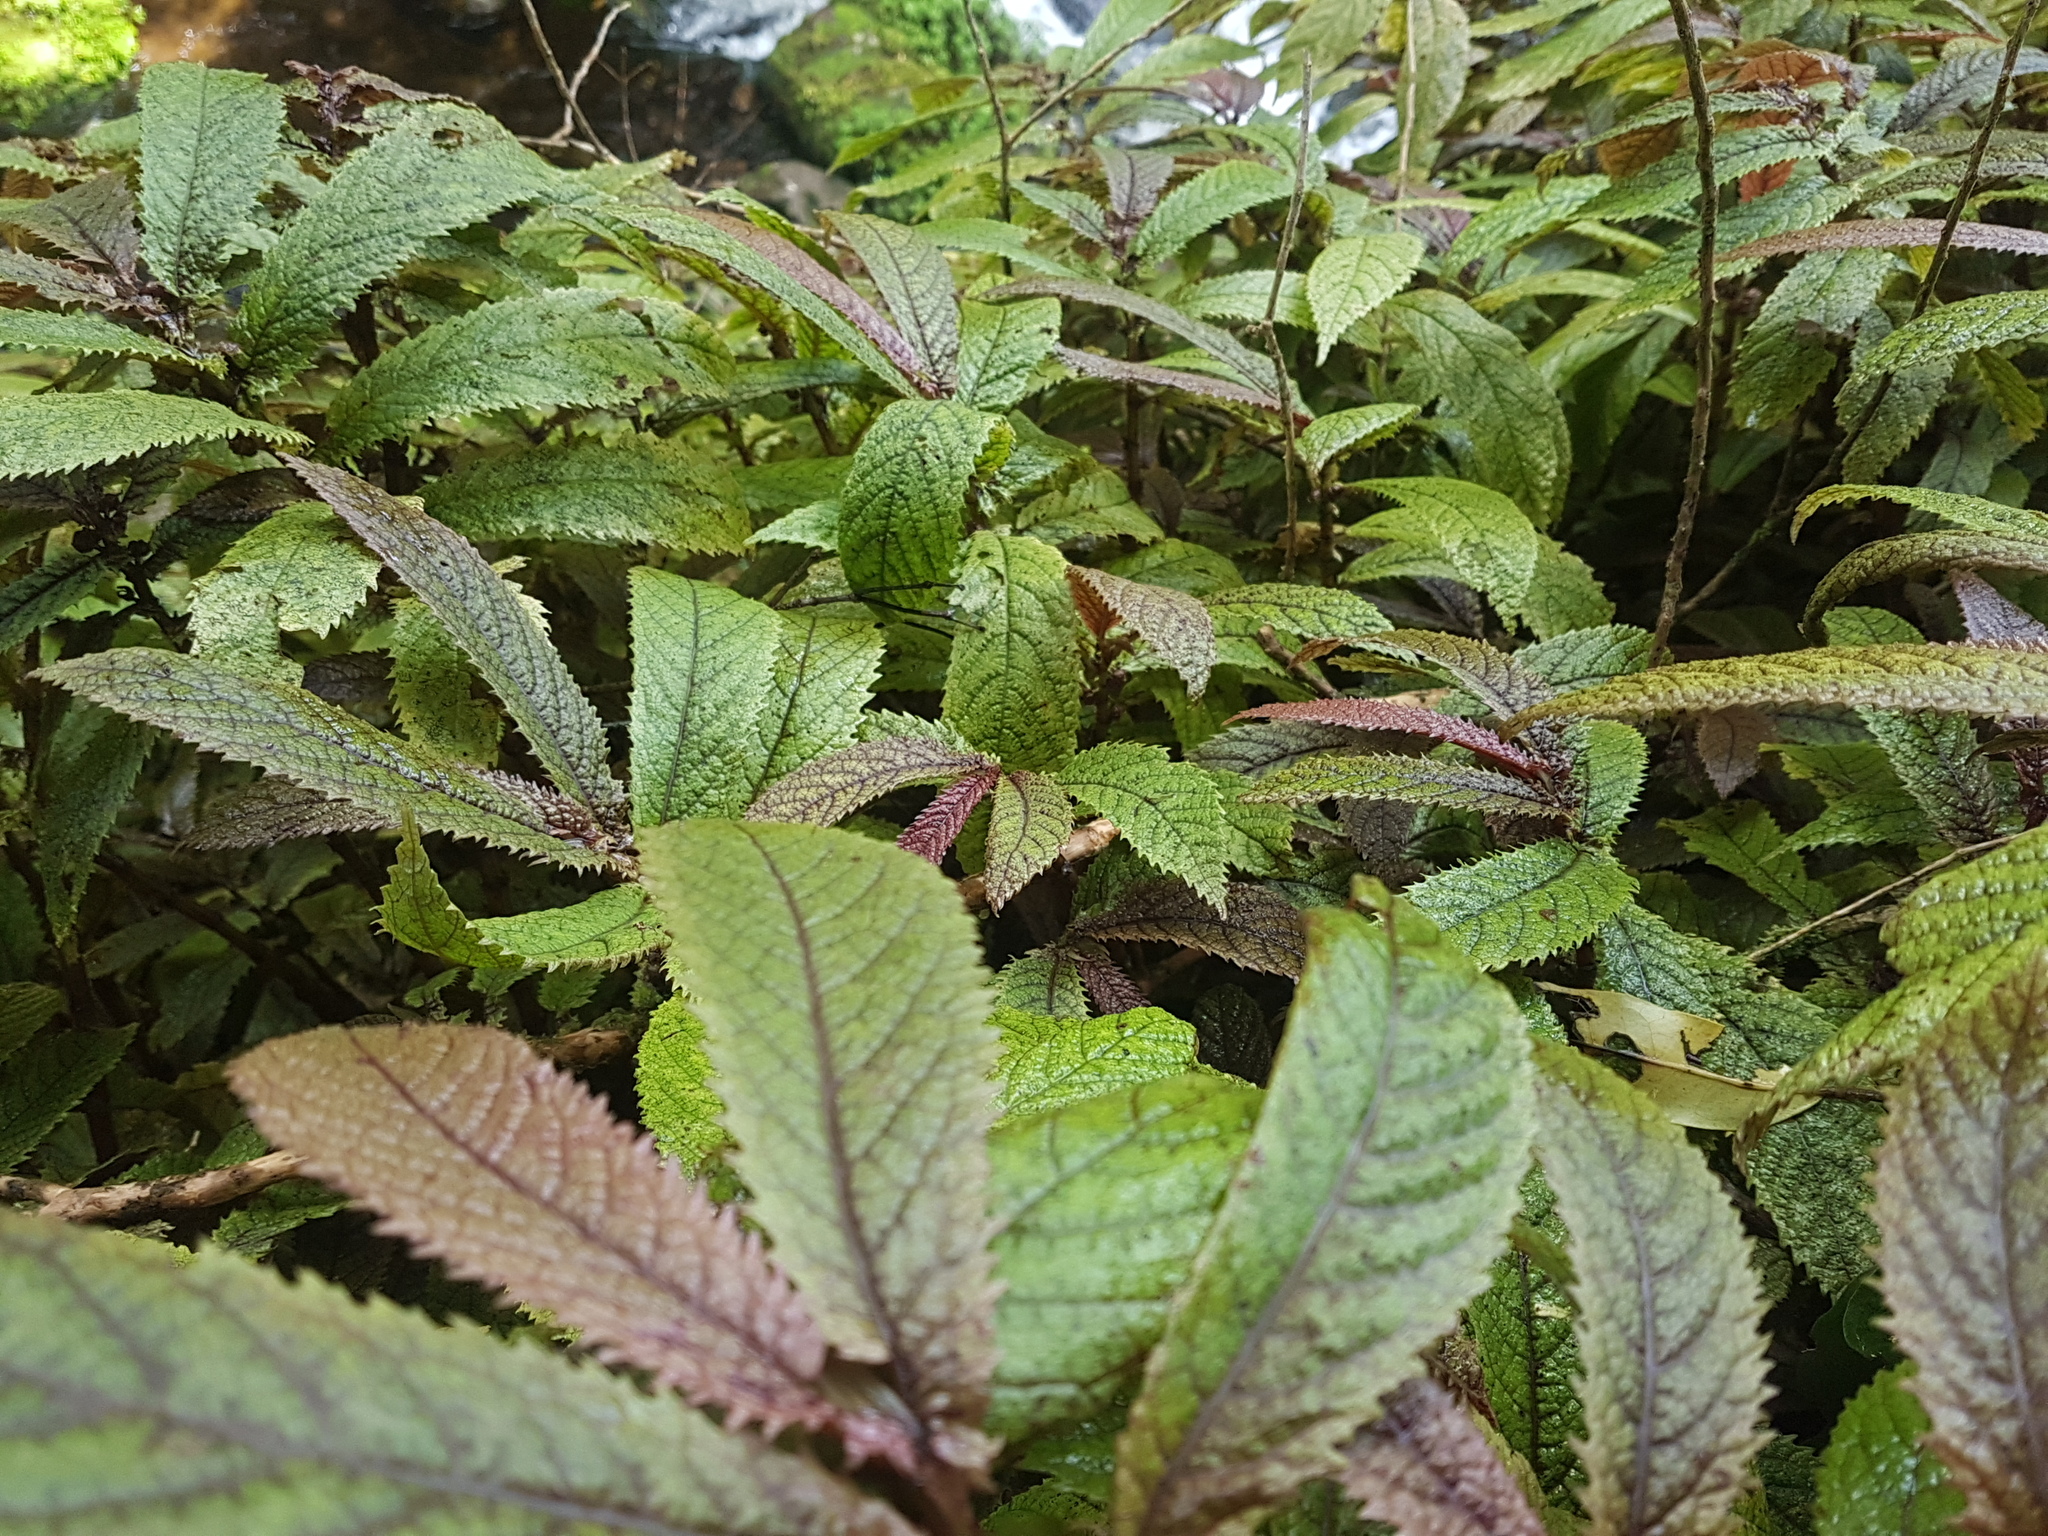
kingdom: Plantae
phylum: Tracheophyta
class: Magnoliopsida
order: Rosales
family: Urticaceae
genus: Elatostema
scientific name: Elatostema rugosum
